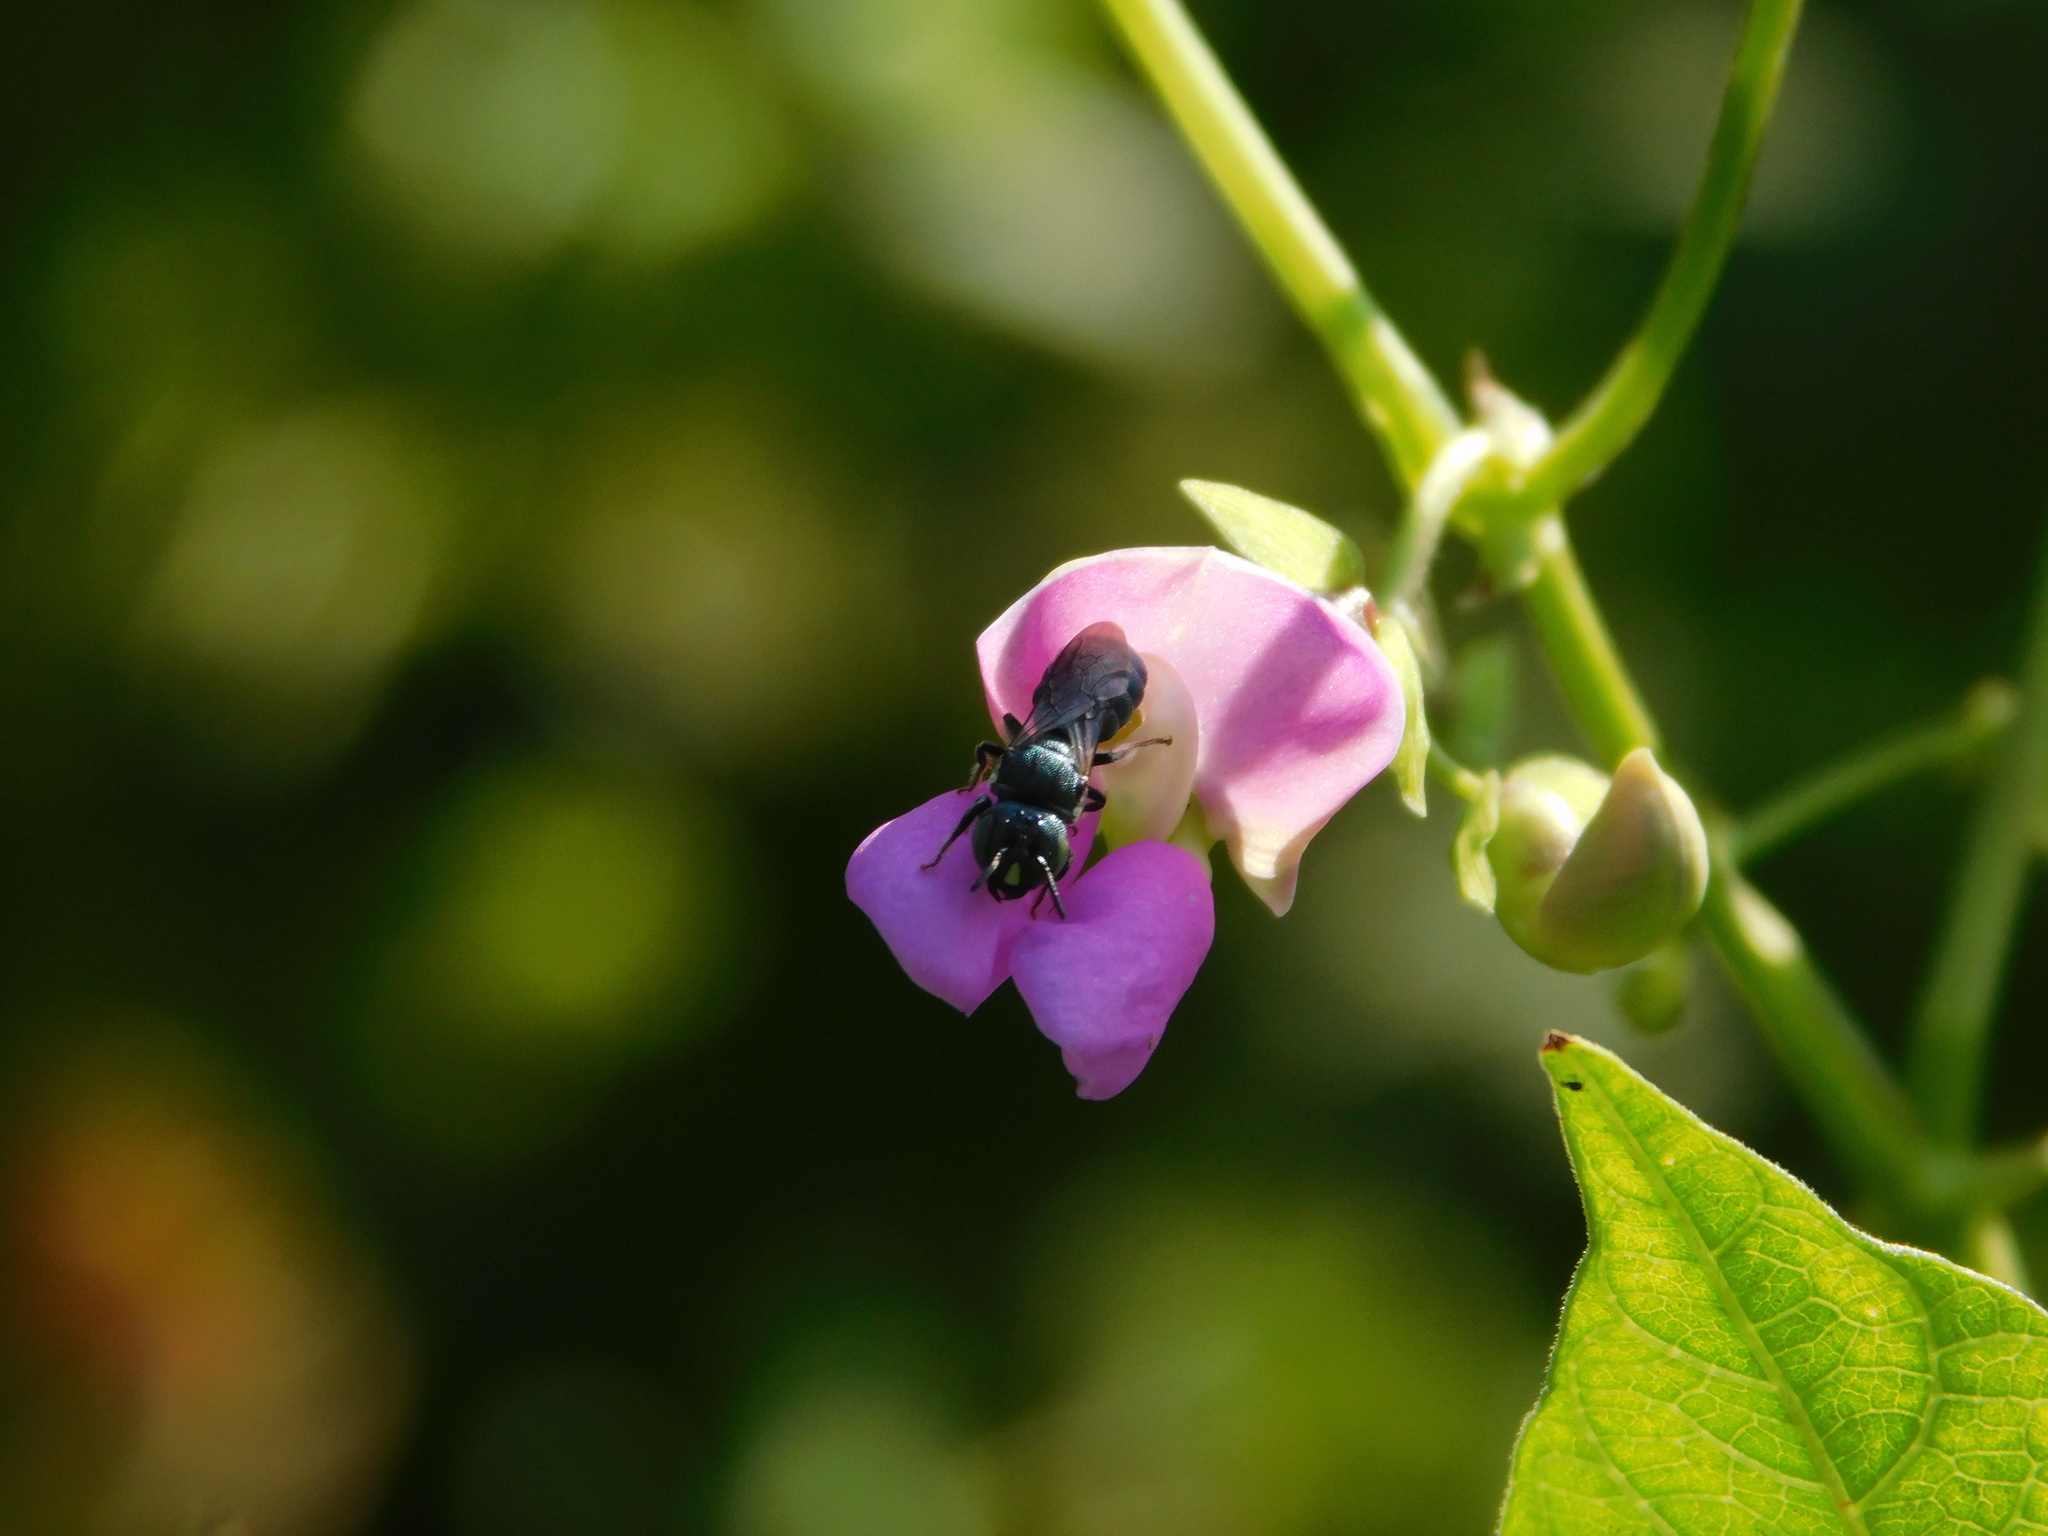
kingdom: Animalia
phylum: Arthropoda
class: Insecta
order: Hymenoptera
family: Apidae
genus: Ceratina
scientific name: Ceratina unimaculata
